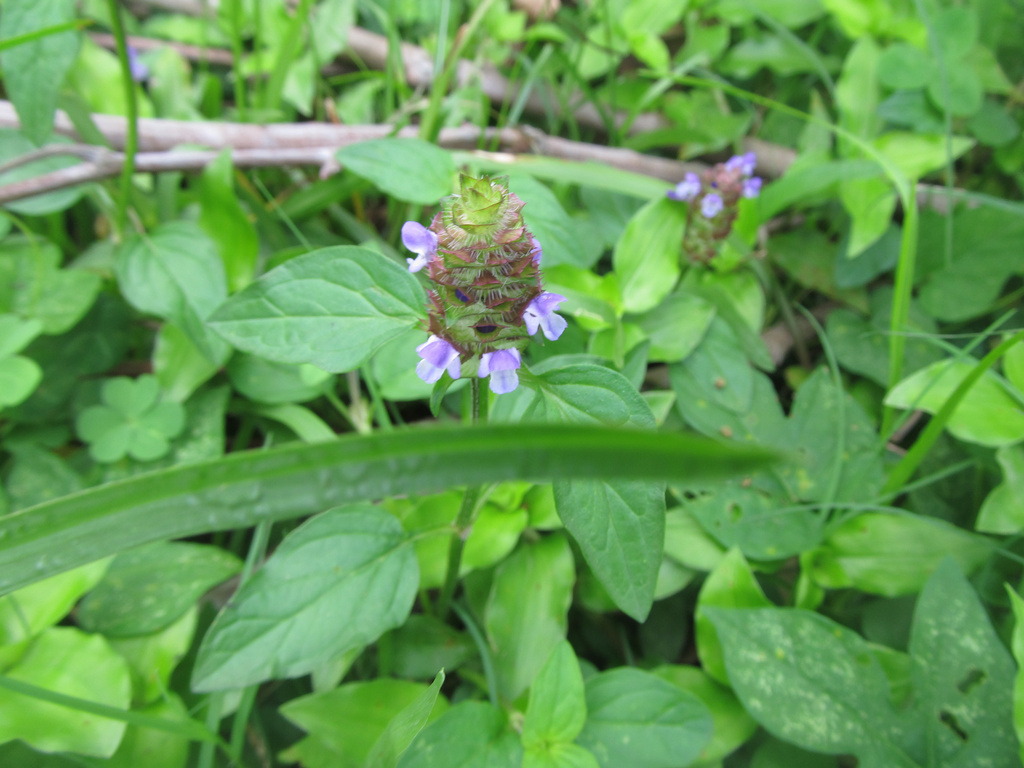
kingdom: Plantae
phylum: Tracheophyta
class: Magnoliopsida
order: Lamiales
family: Lamiaceae
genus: Prunella
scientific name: Prunella vulgaris
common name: Heal-all
